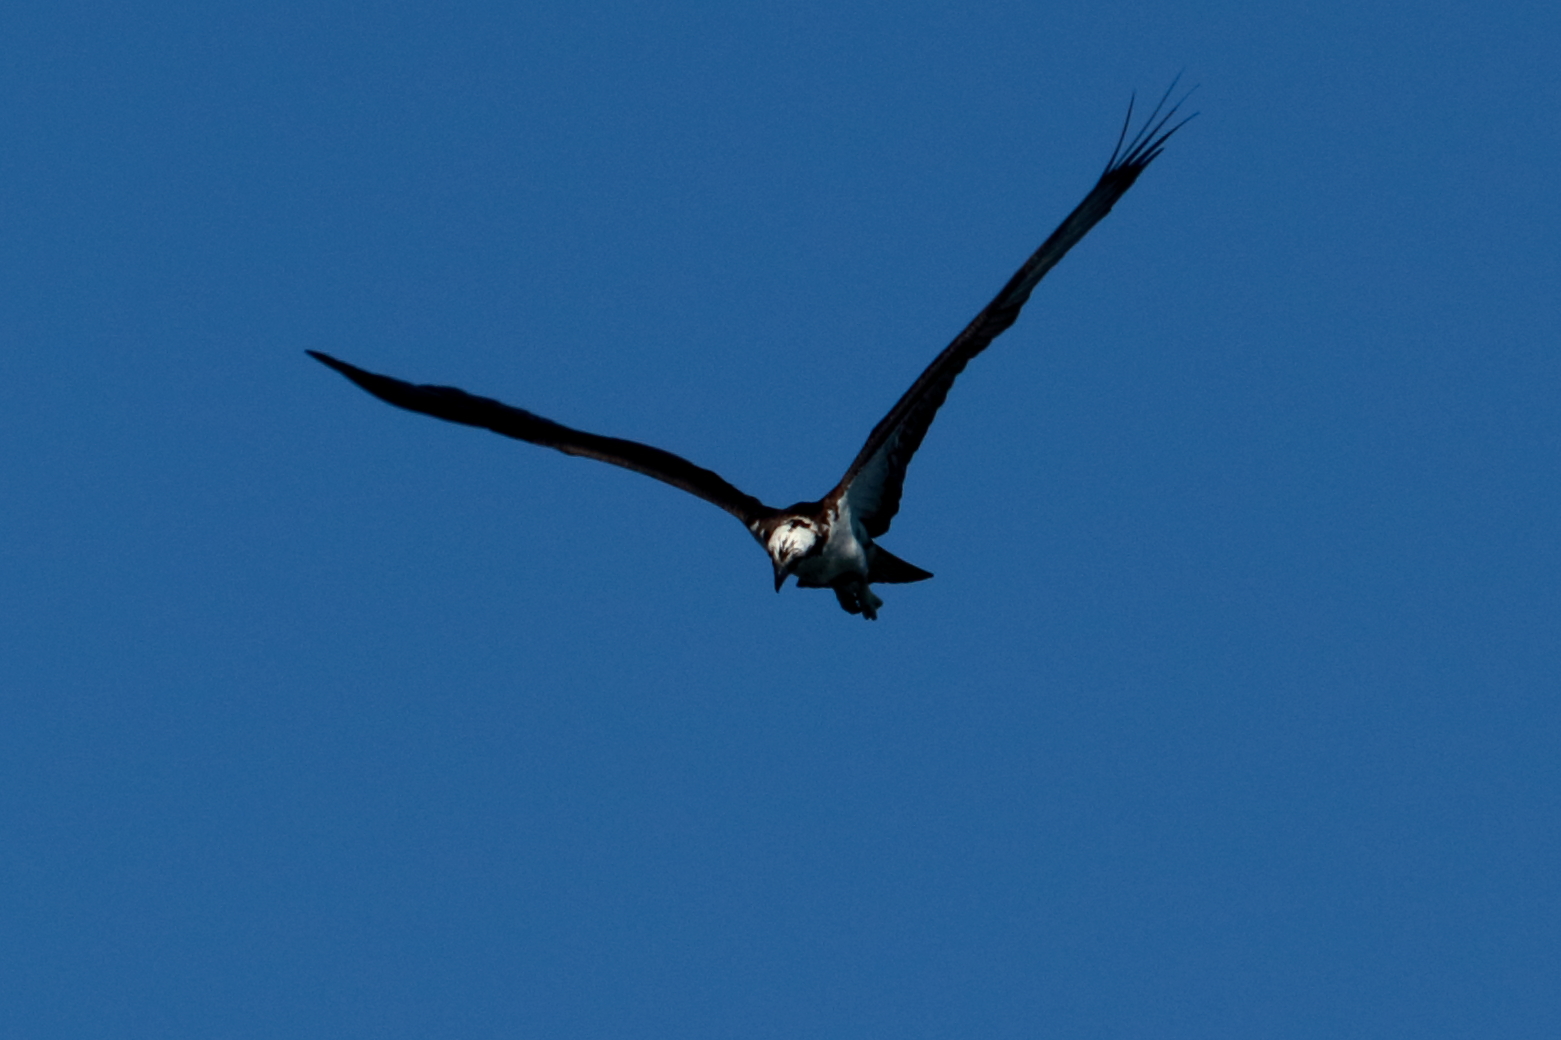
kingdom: Animalia
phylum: Chordata
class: Aves
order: Accipitriformes
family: Pandionidae
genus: Pandion
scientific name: Pandion haliaetus
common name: Osprey
